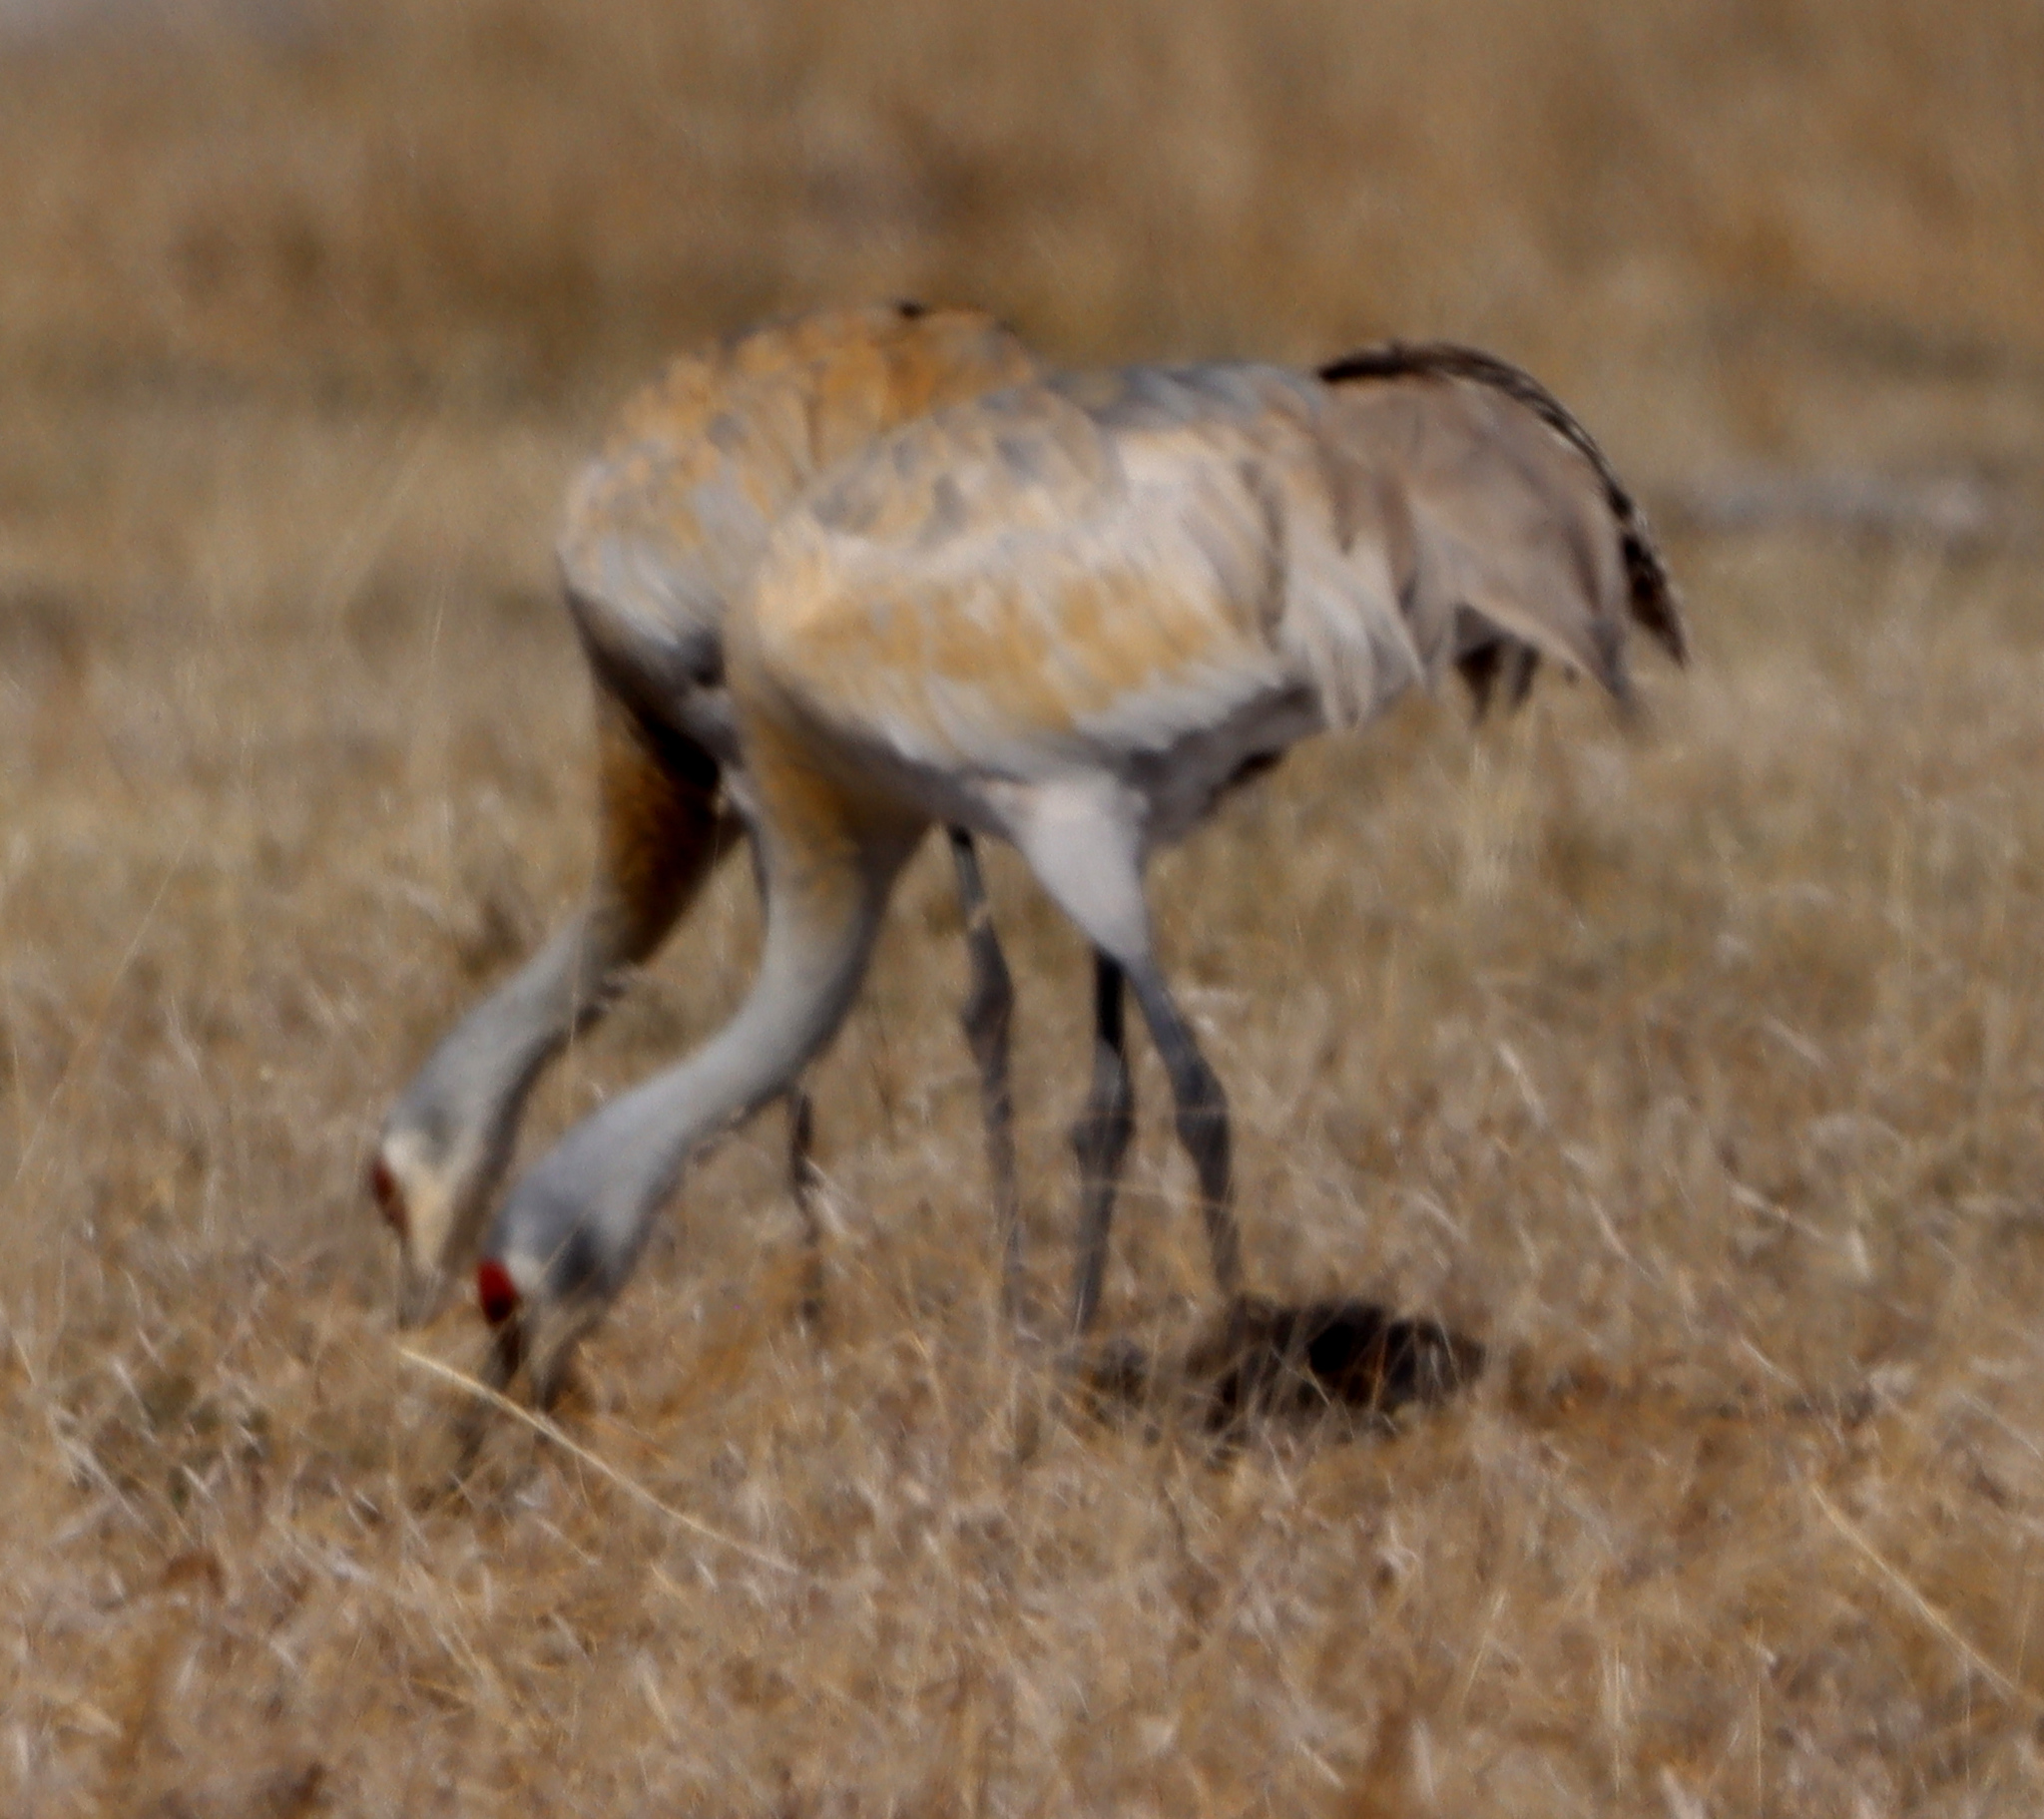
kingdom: Animalia
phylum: Chordata
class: Aves
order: Gruiformes
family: Gruidae
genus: Grus
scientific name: Grus canadensis
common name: Sandhill crane
